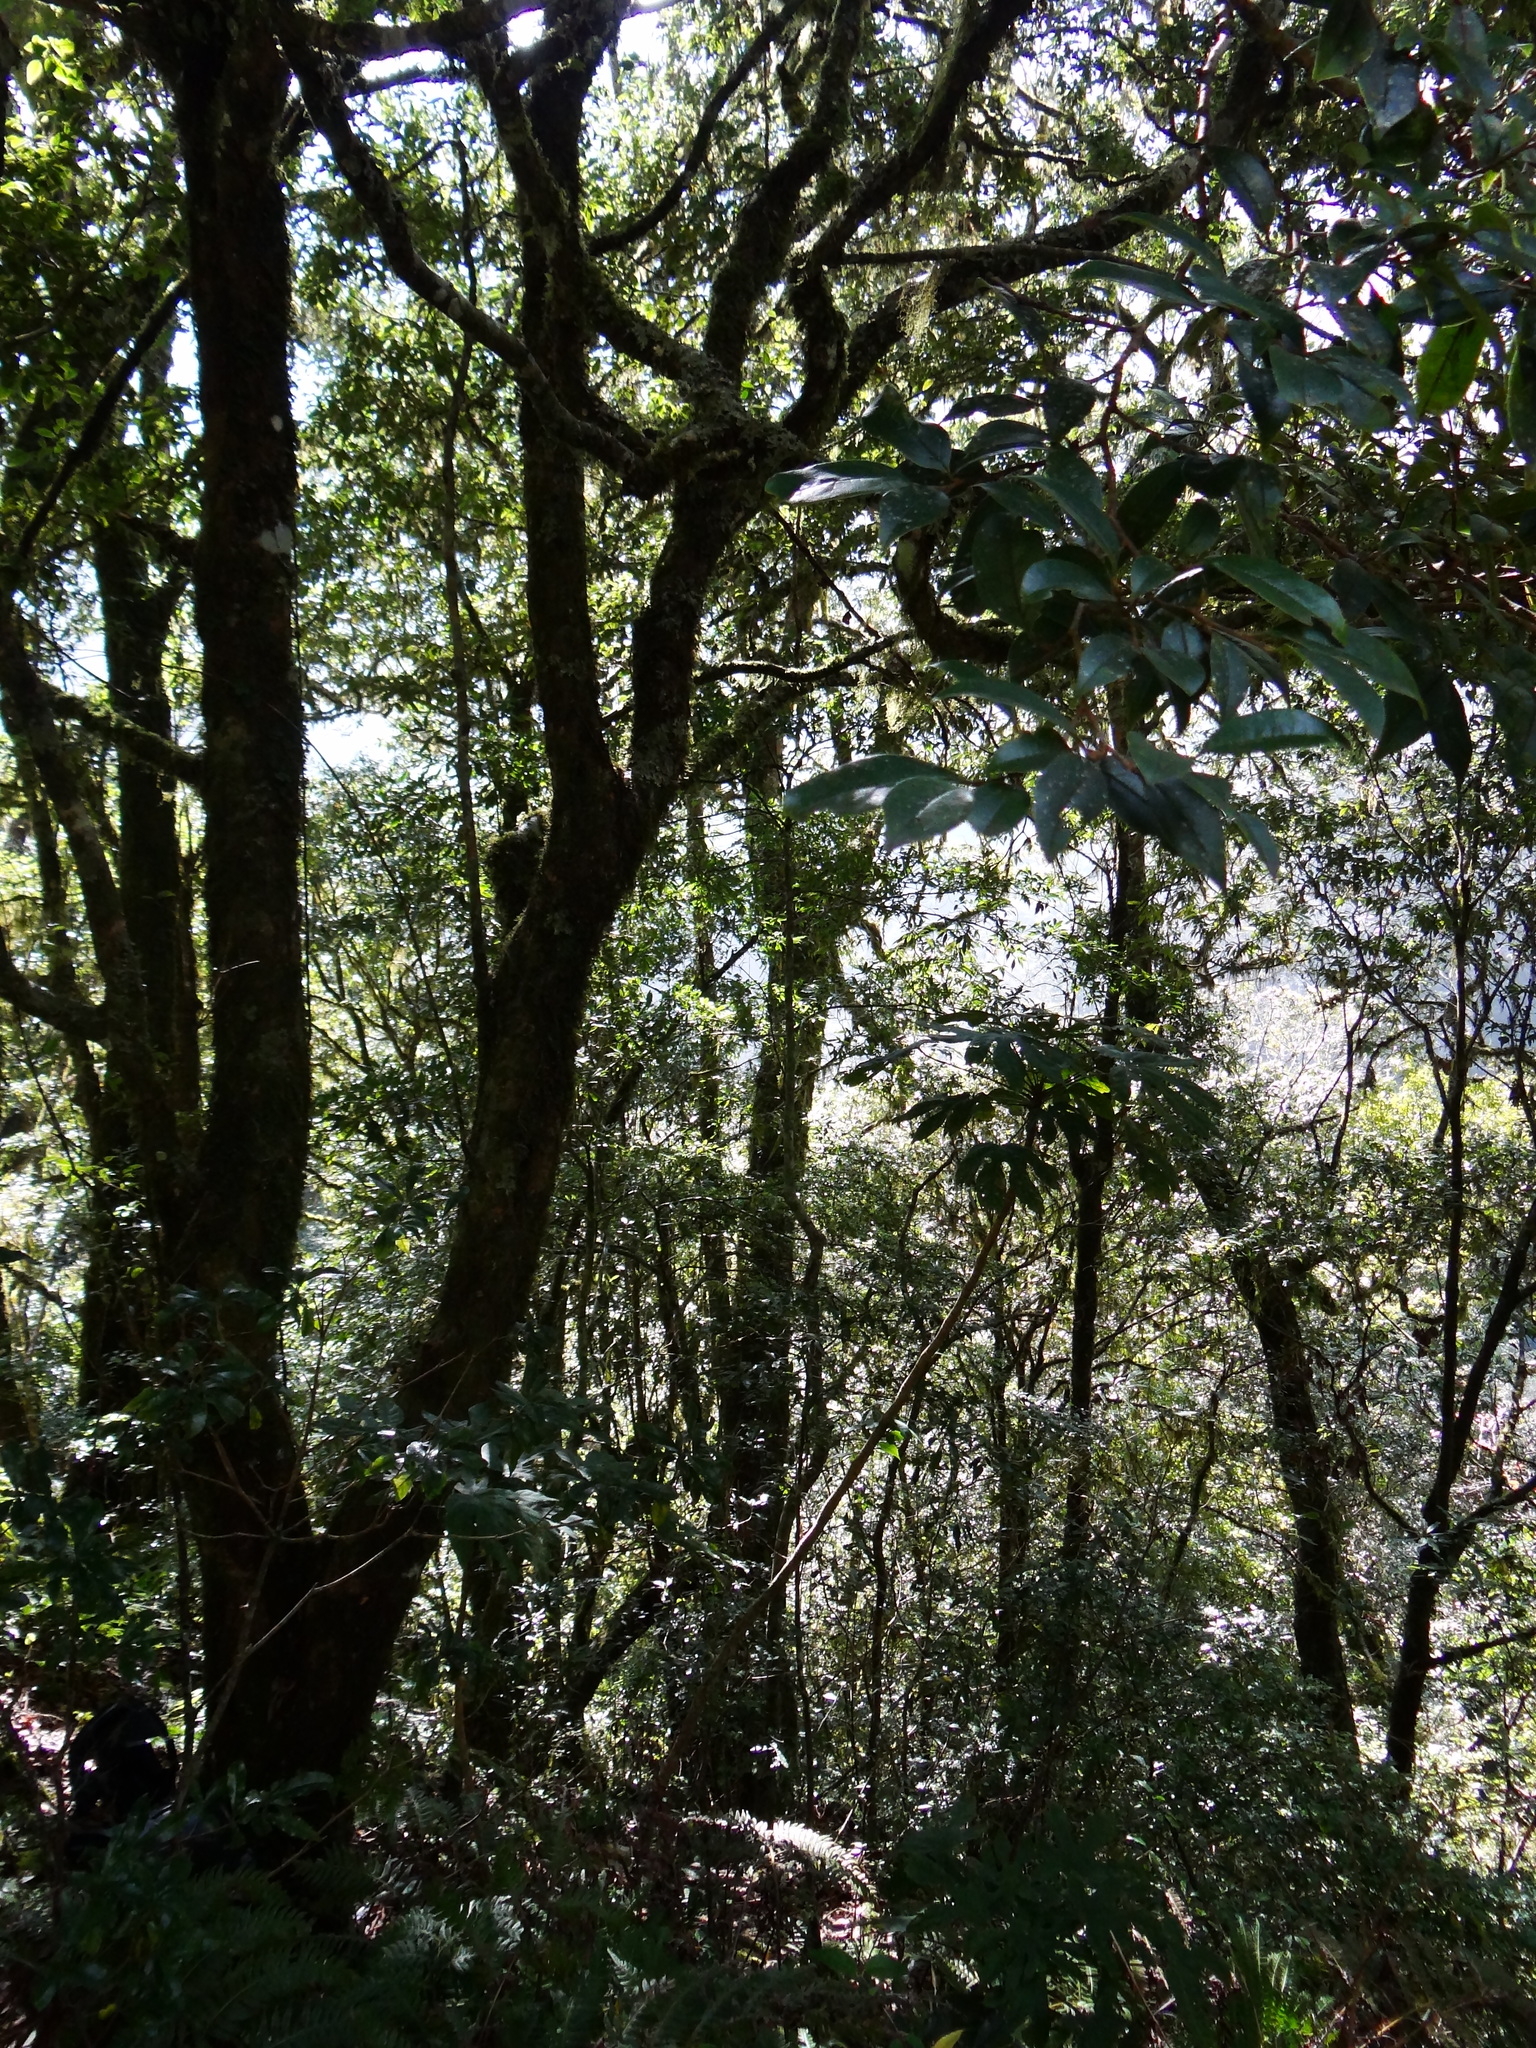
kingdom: Plantae
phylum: Tracheophyta
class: Magnoliopsida
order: Saxifragales
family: Hamamelidaceae
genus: Sycopsis
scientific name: Sycopsis sinensis
